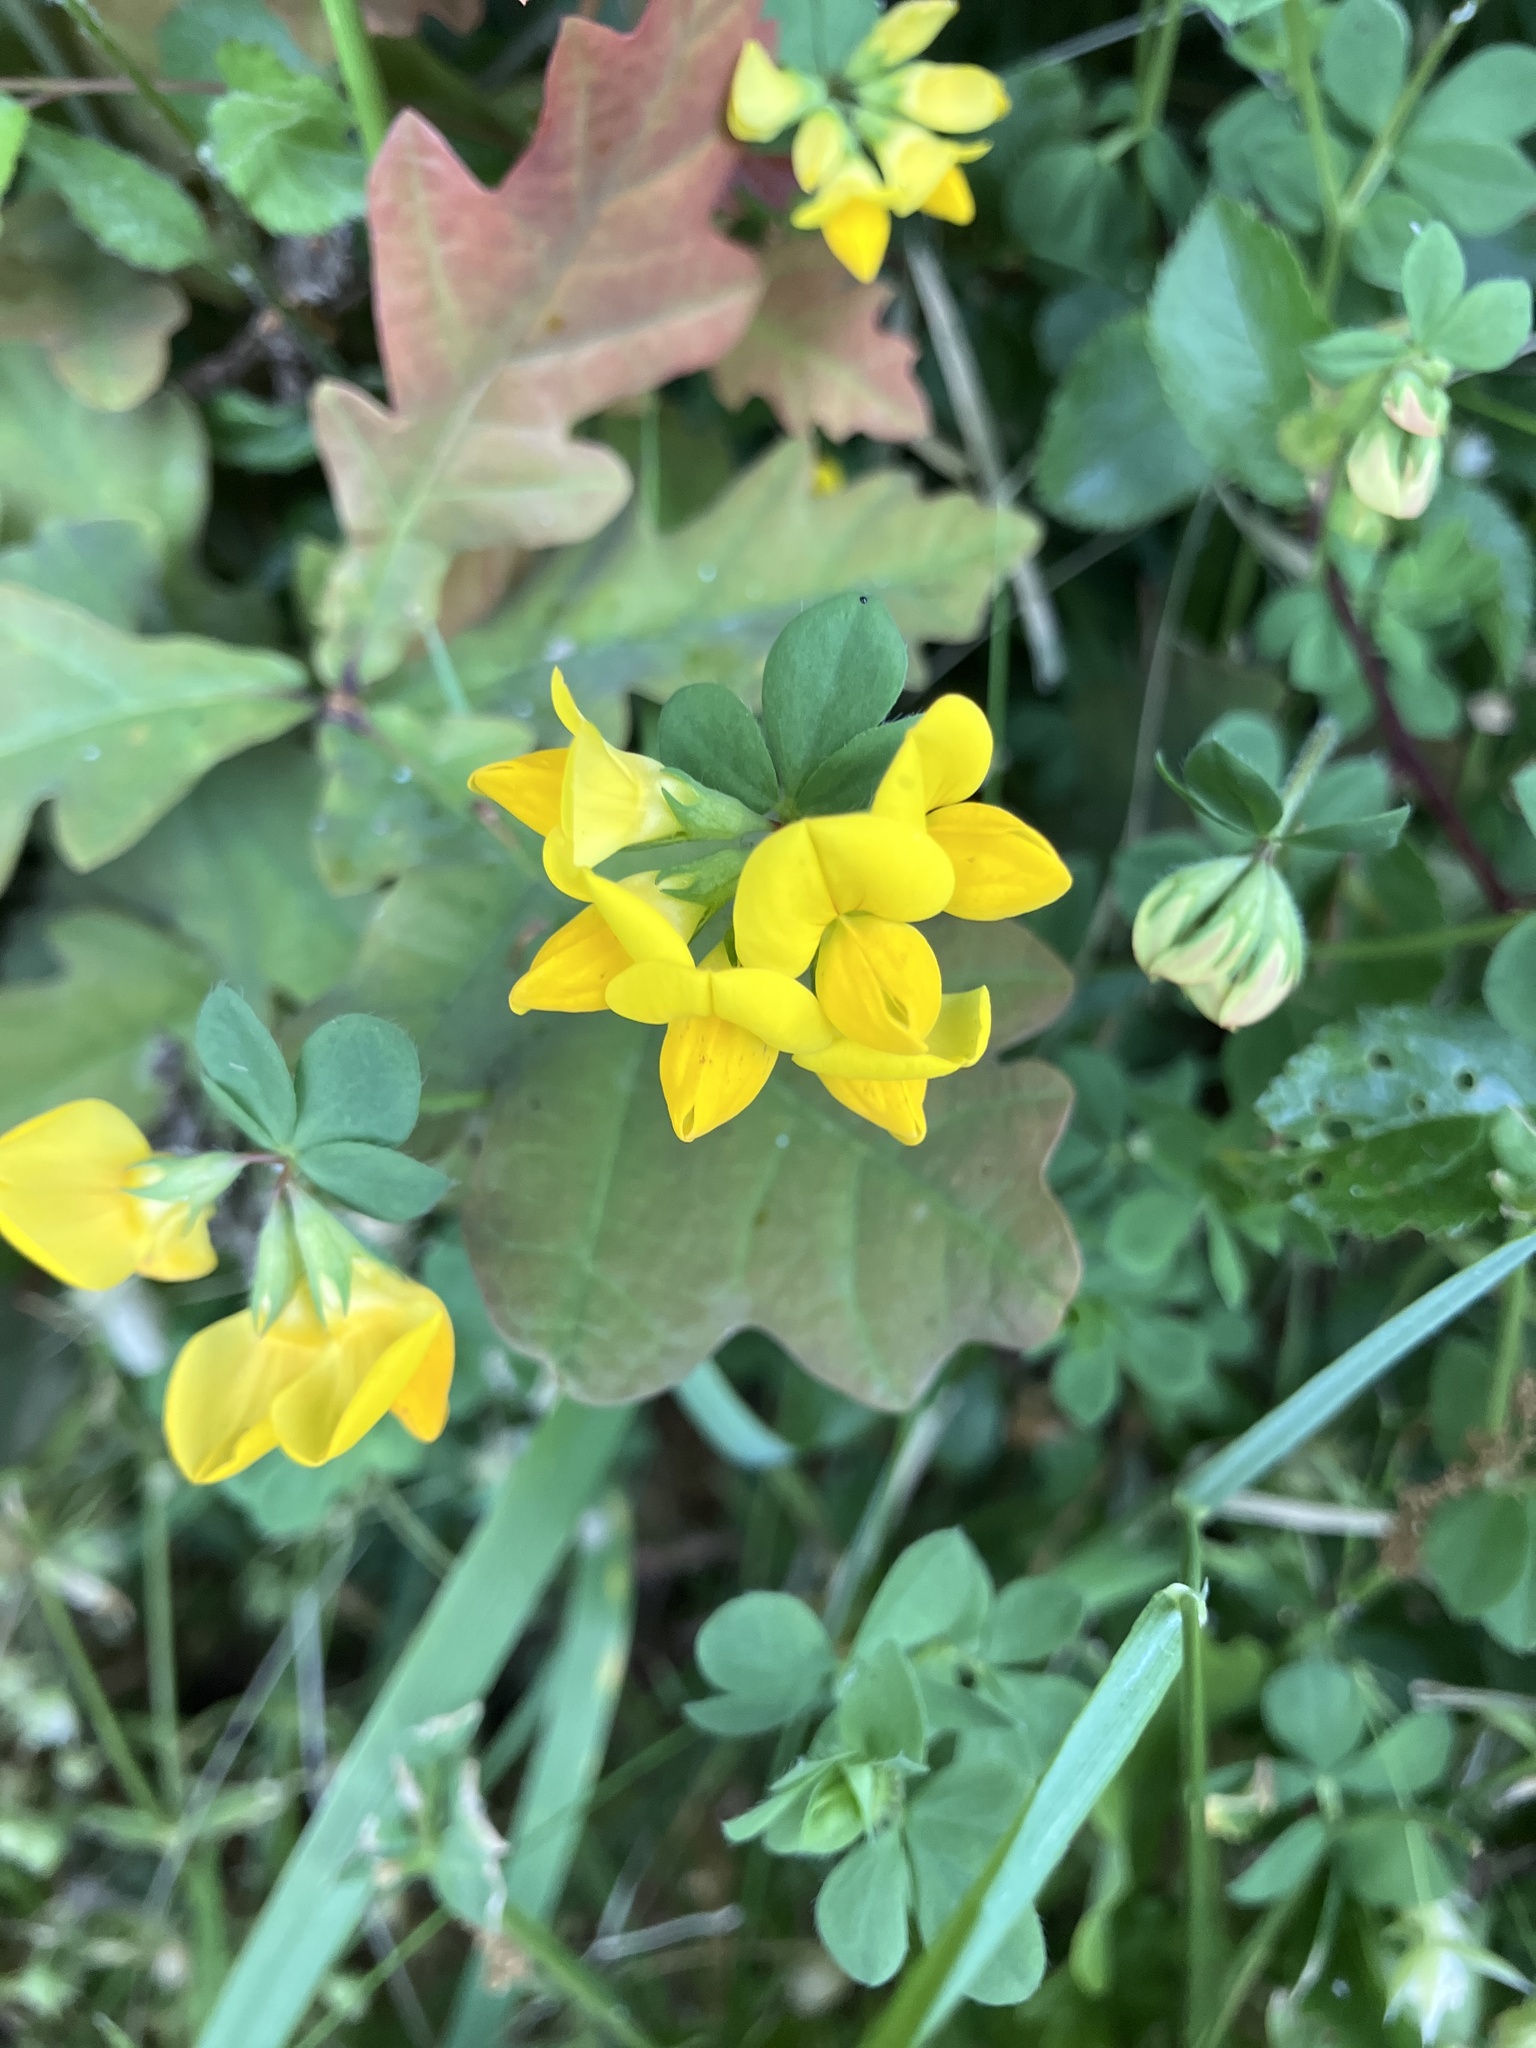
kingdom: Plantae
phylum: Tracheophyta
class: Magnoliopsida
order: Fabales
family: Fabaceae
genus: Lotus
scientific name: Lotus corniculatus
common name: Common bird's-foot-trefoil
